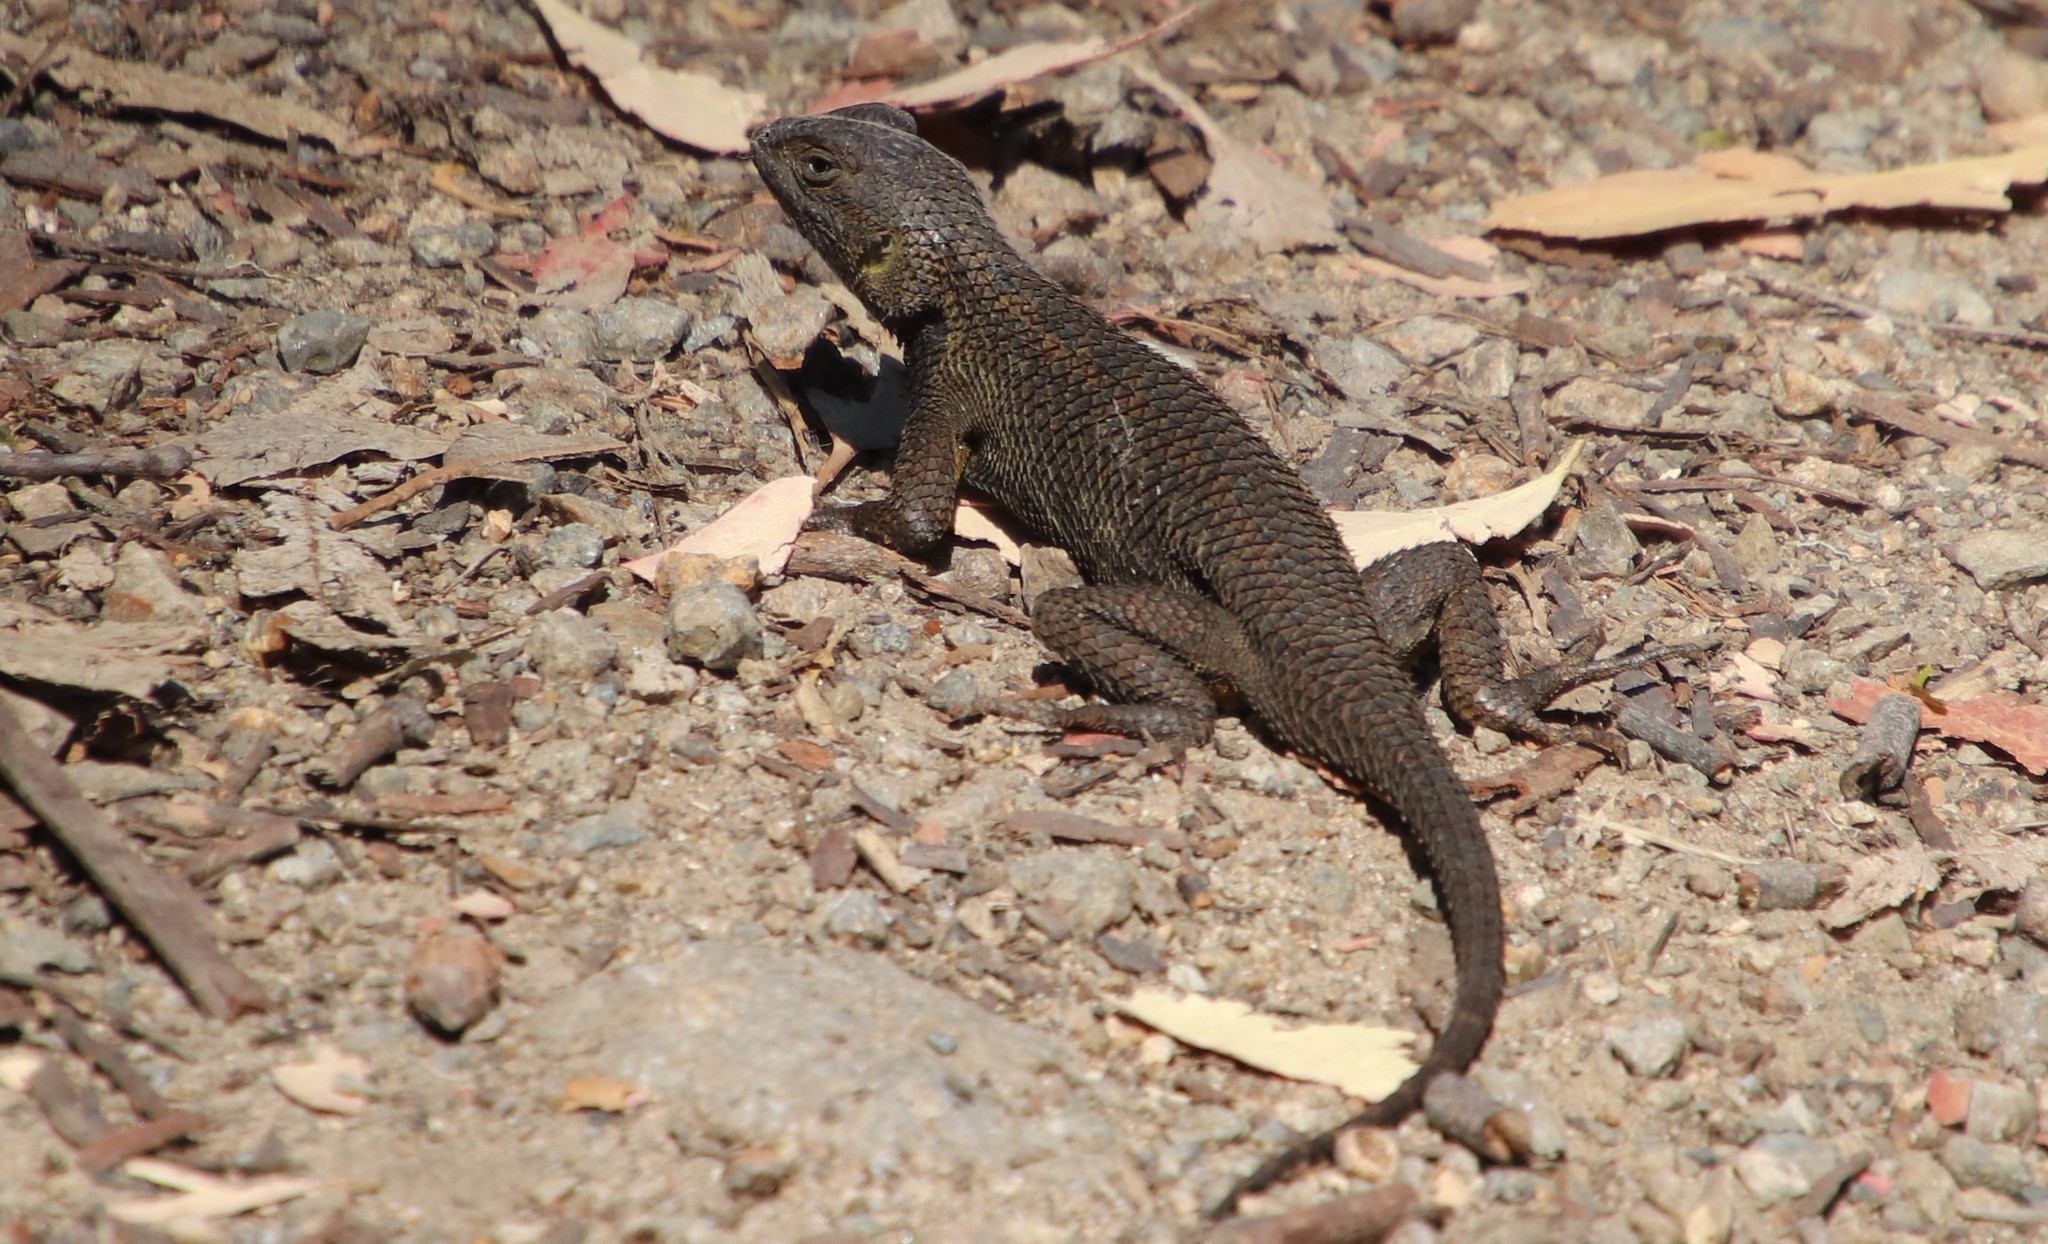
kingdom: Animalia
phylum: Chordata
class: Squamata
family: Phrynosomatidae
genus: Sceloporus
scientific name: Sceloporus occidentalis
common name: Western fence lizard
